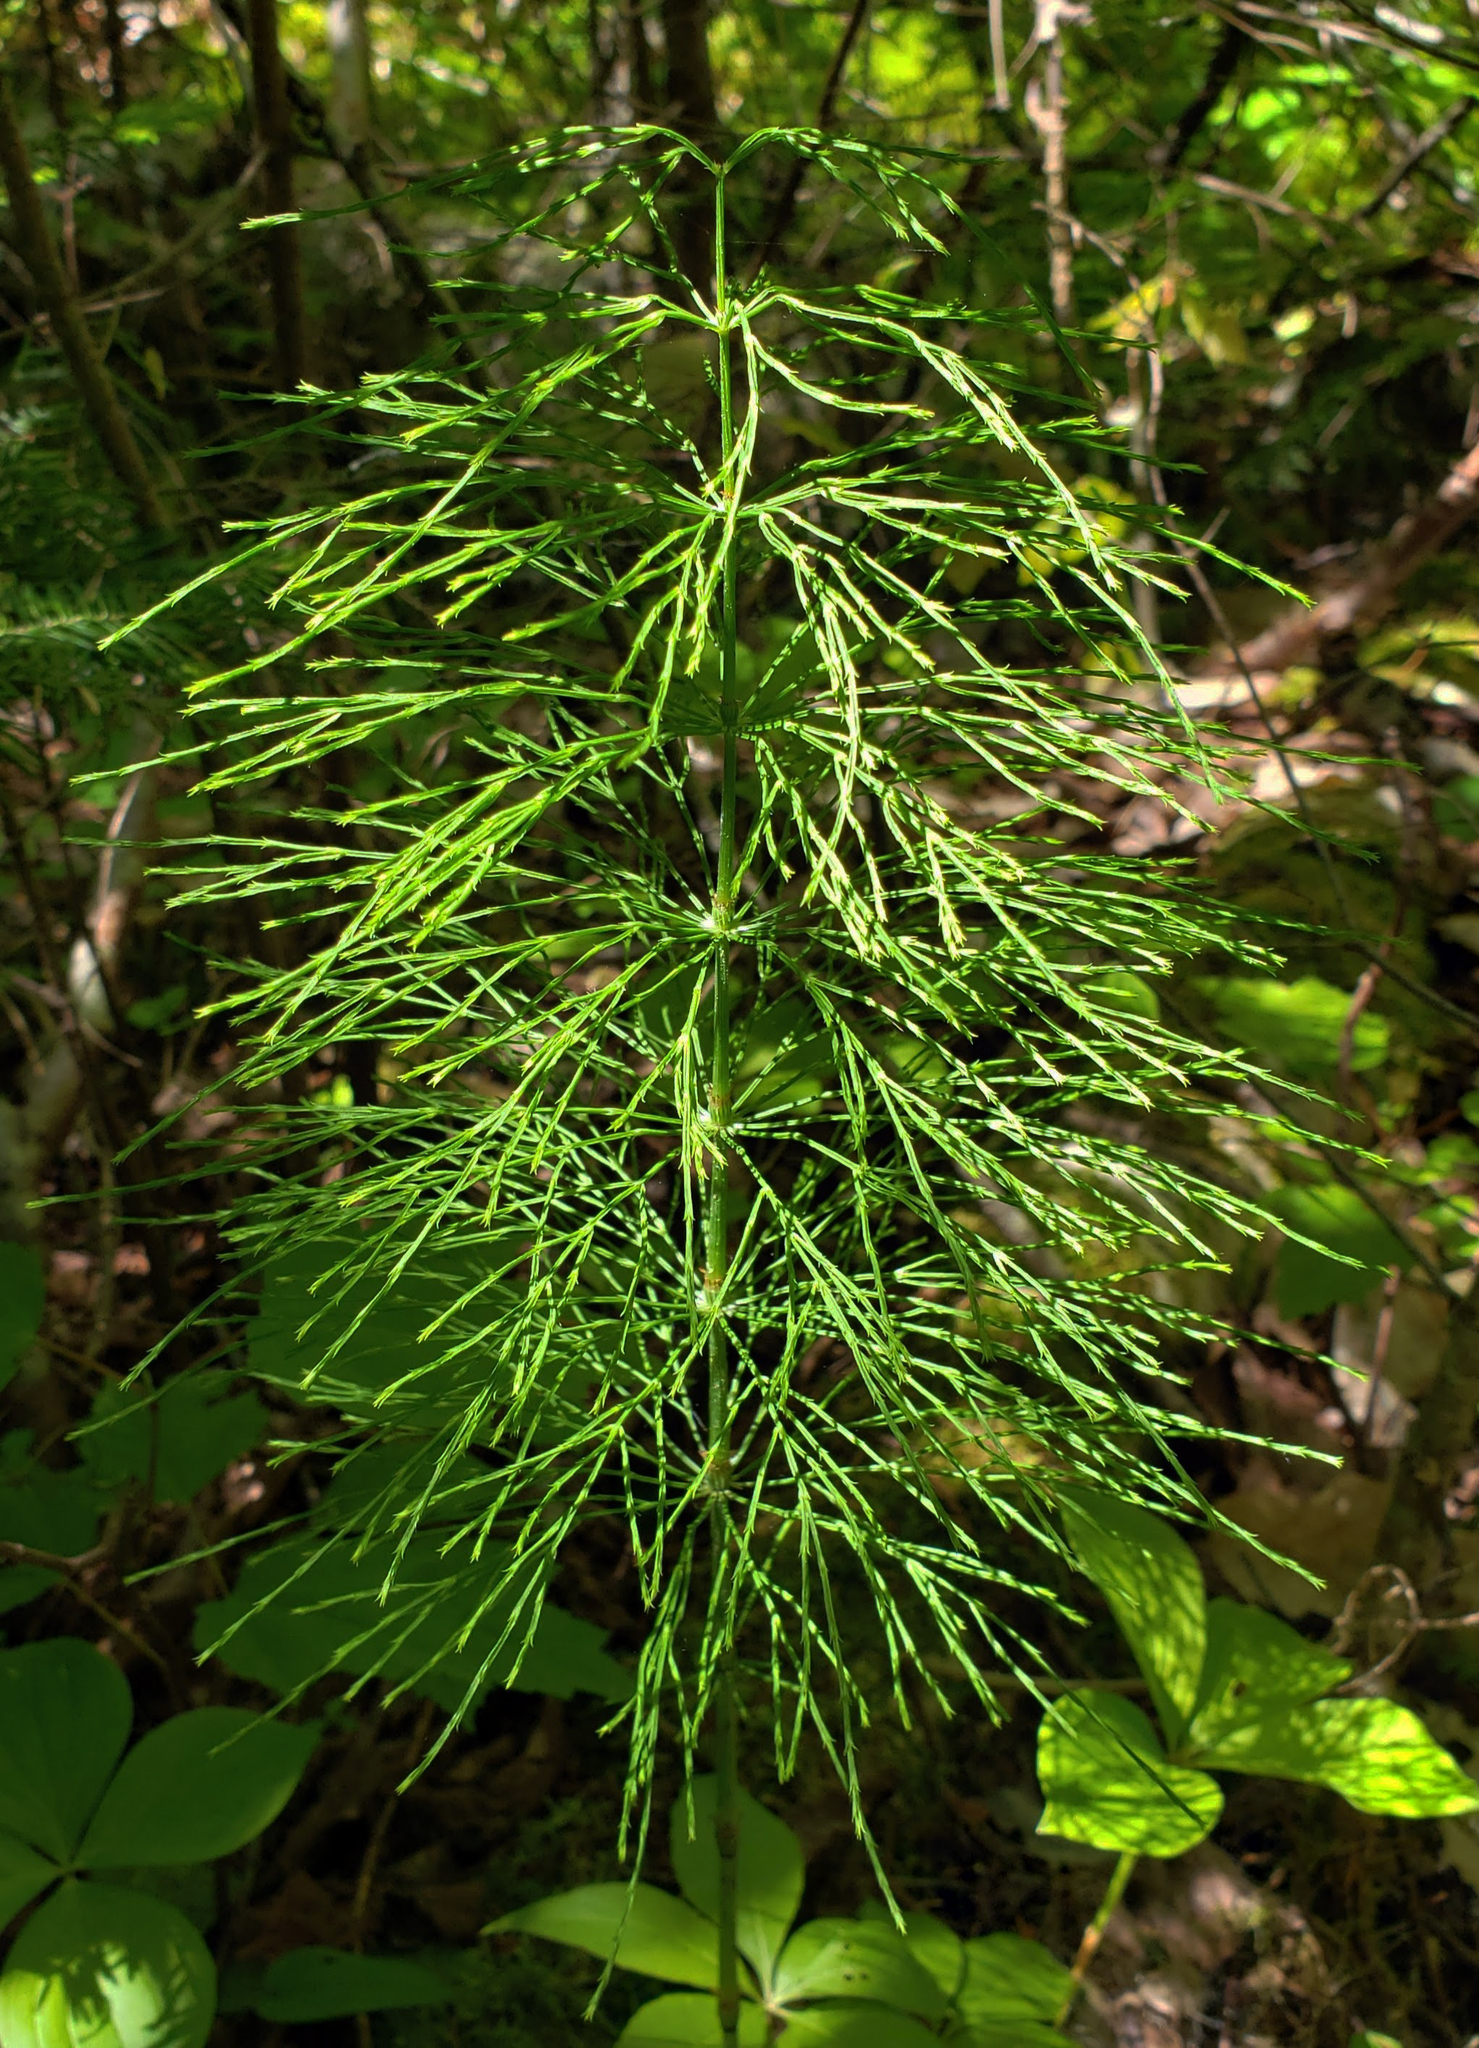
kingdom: Plantae
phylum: Tracheophyta
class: Polypodiopsida
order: Equisetales
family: Equisetaceae
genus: Equisetum
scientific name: Equisetum sylvaticum
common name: Wood horsetail
